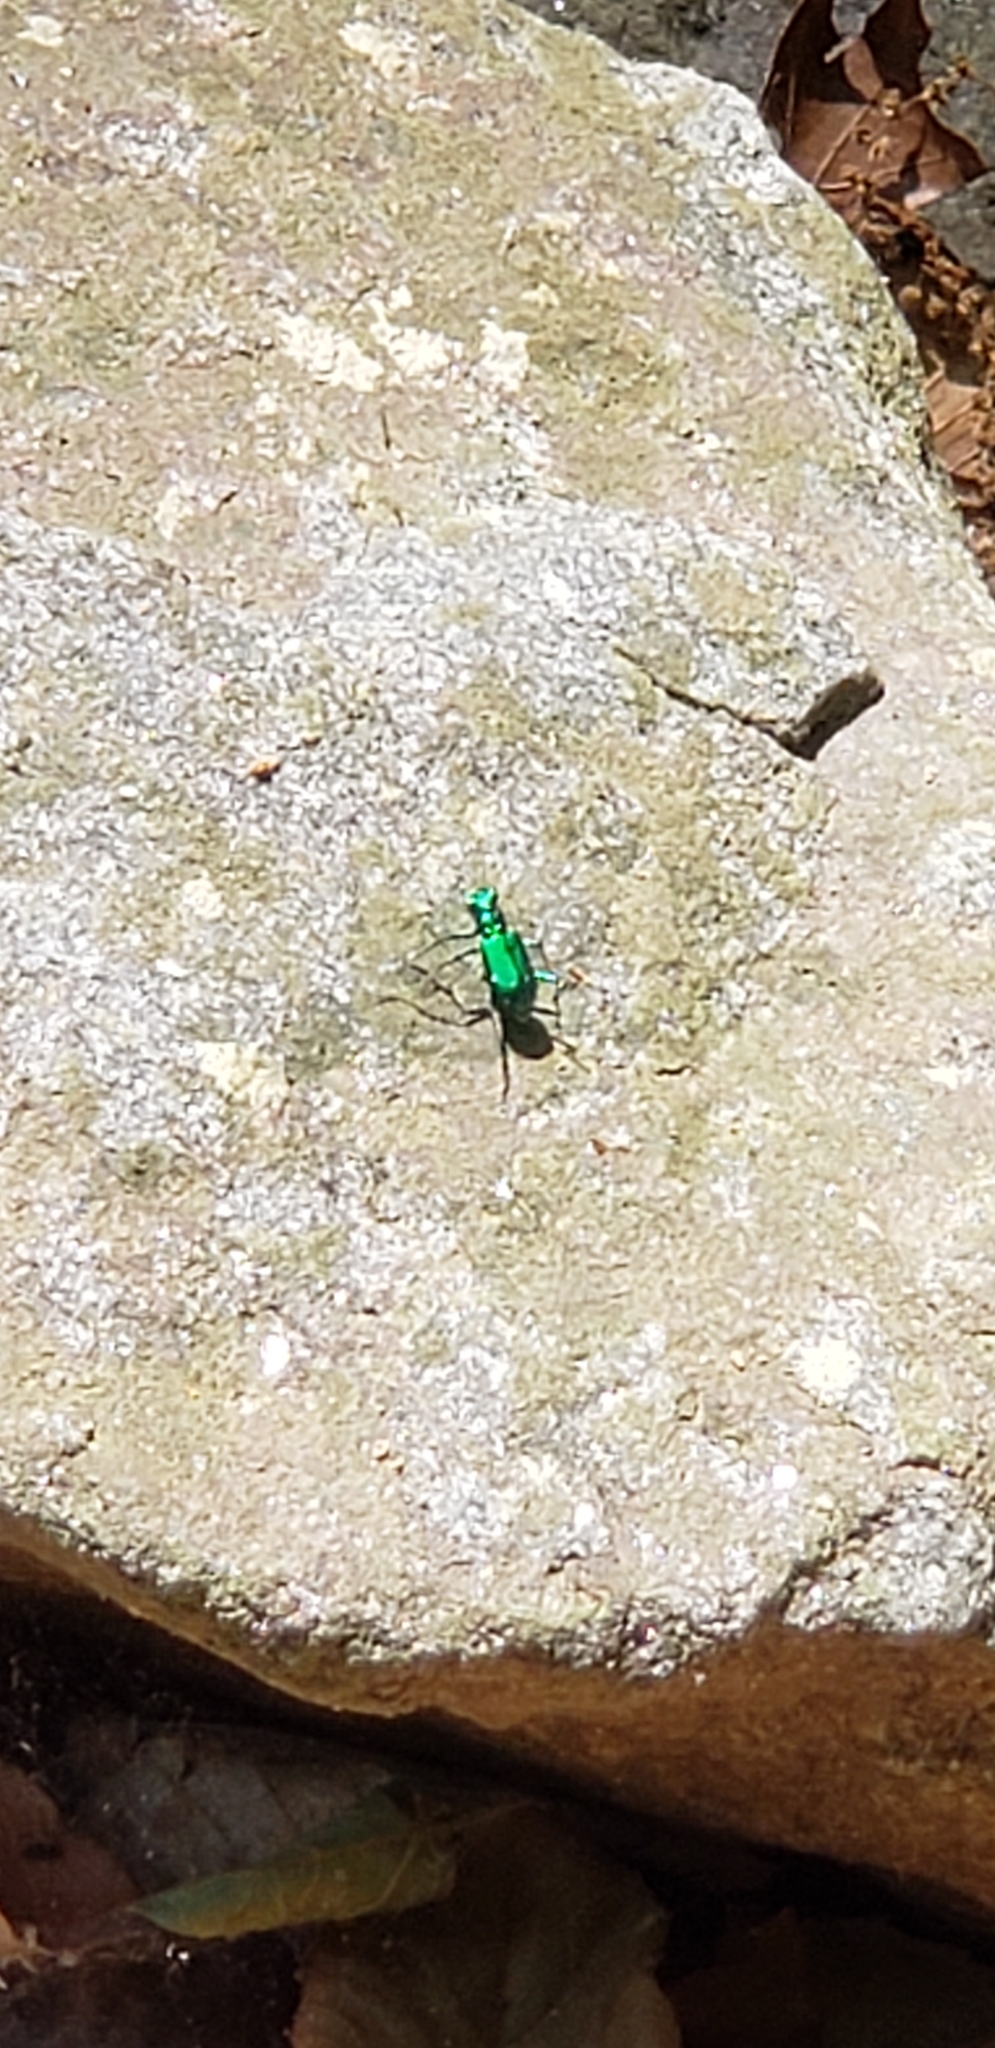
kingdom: Animalia
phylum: Arthropoda
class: Insecta
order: Coleoptera
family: Carabidae
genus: Cicindela
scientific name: Cicindela sexguttata
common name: Six-spotted tiger beetle
